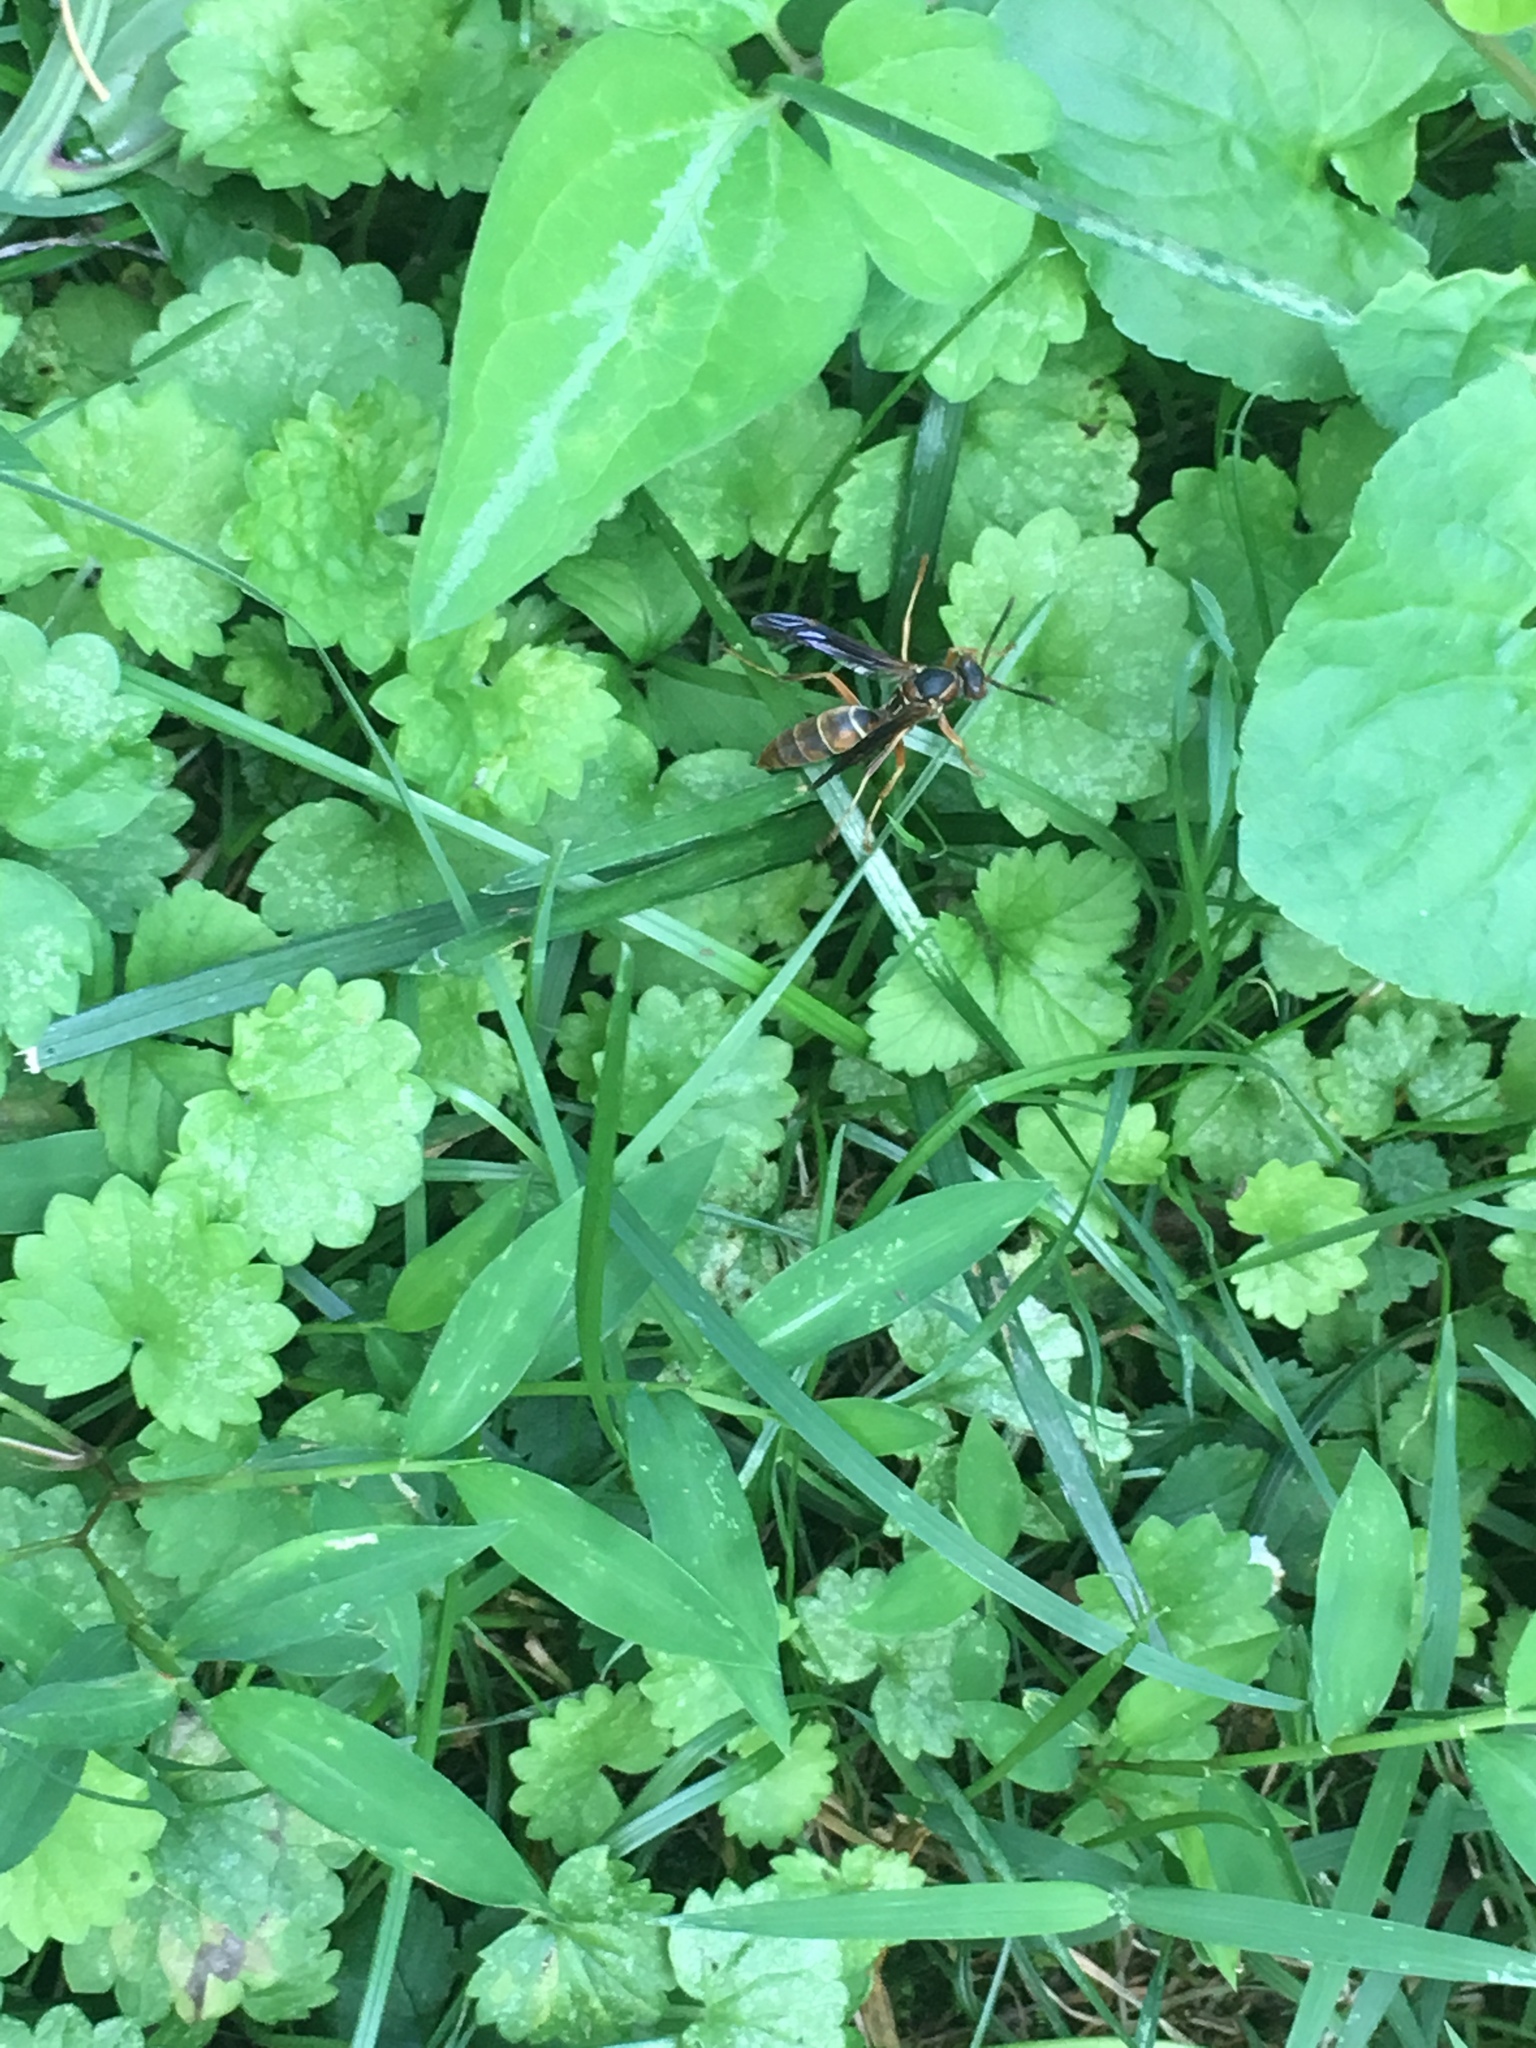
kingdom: Animalia
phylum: Arthropoda
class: Insecta
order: Hymenoptera
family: Eumenidae
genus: Polistes
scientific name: Polistes fuscatus
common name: Dark paper wasp
